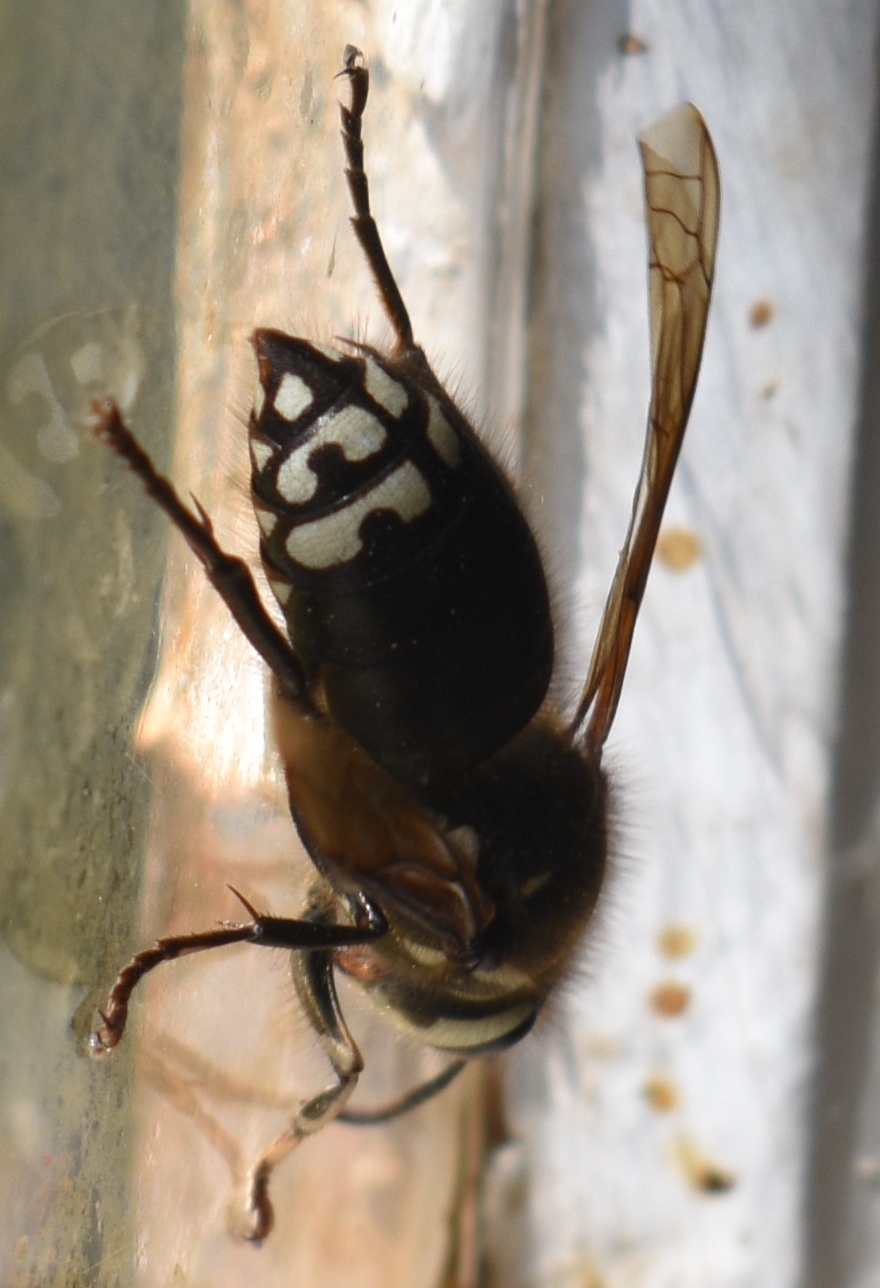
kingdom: Animalia
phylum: Arthropoda
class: Insecta
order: Hymenoptera
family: Vespidae
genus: Dolichovespula
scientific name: Dolichovespula maculata
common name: Bald-faced hornet
